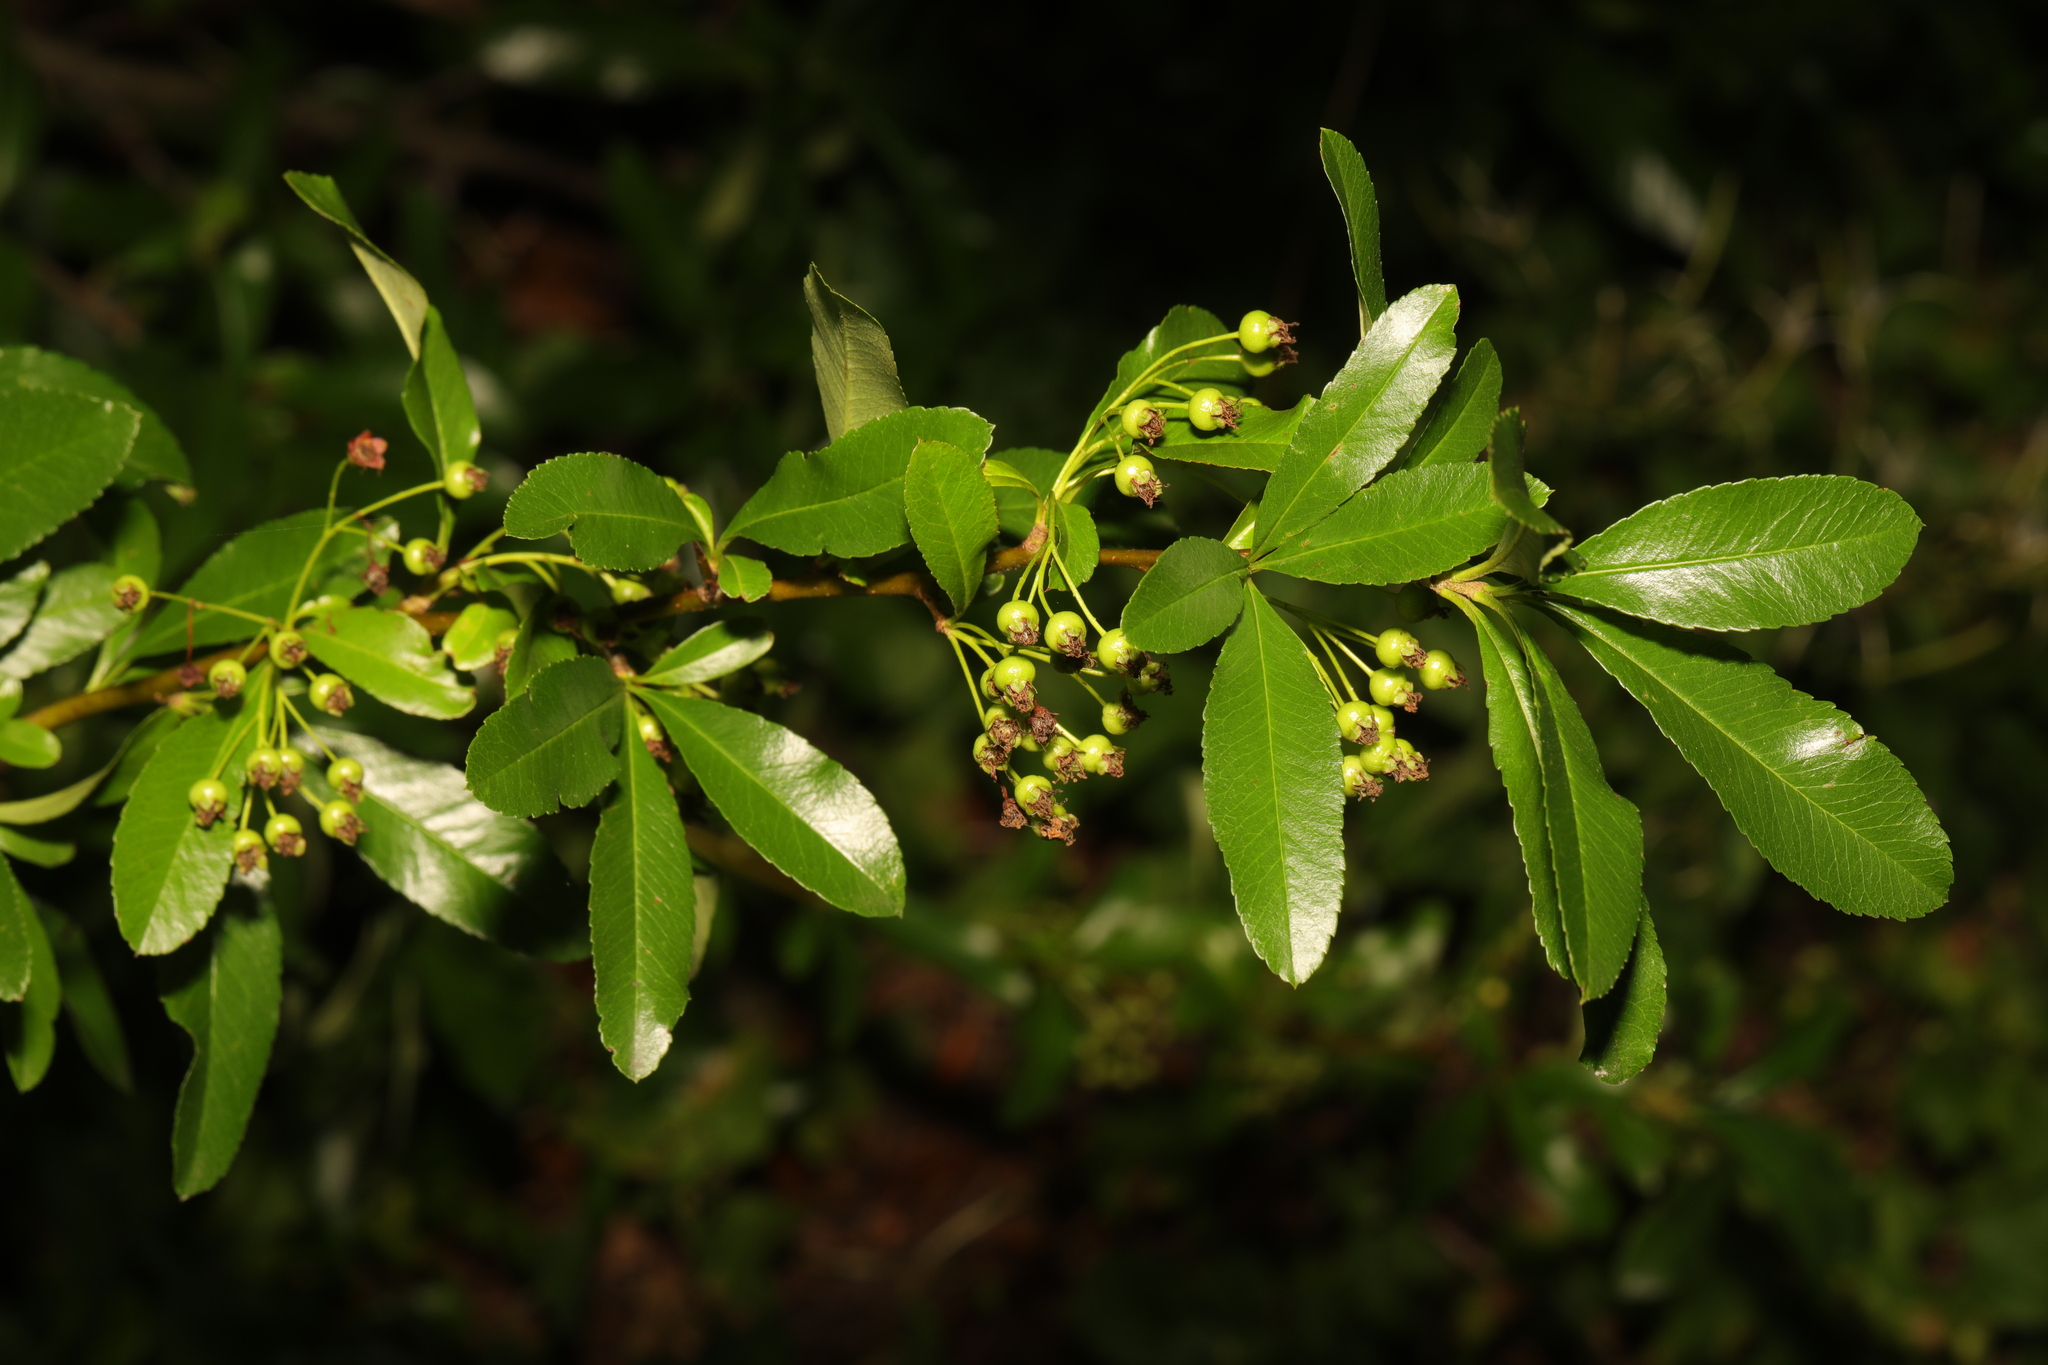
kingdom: Plantae
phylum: Tracheophyta
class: Magnoliopsida
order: Rosales
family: Rosaceae
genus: Pyracantha
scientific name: Pyracantha coccinea
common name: Firethorn
